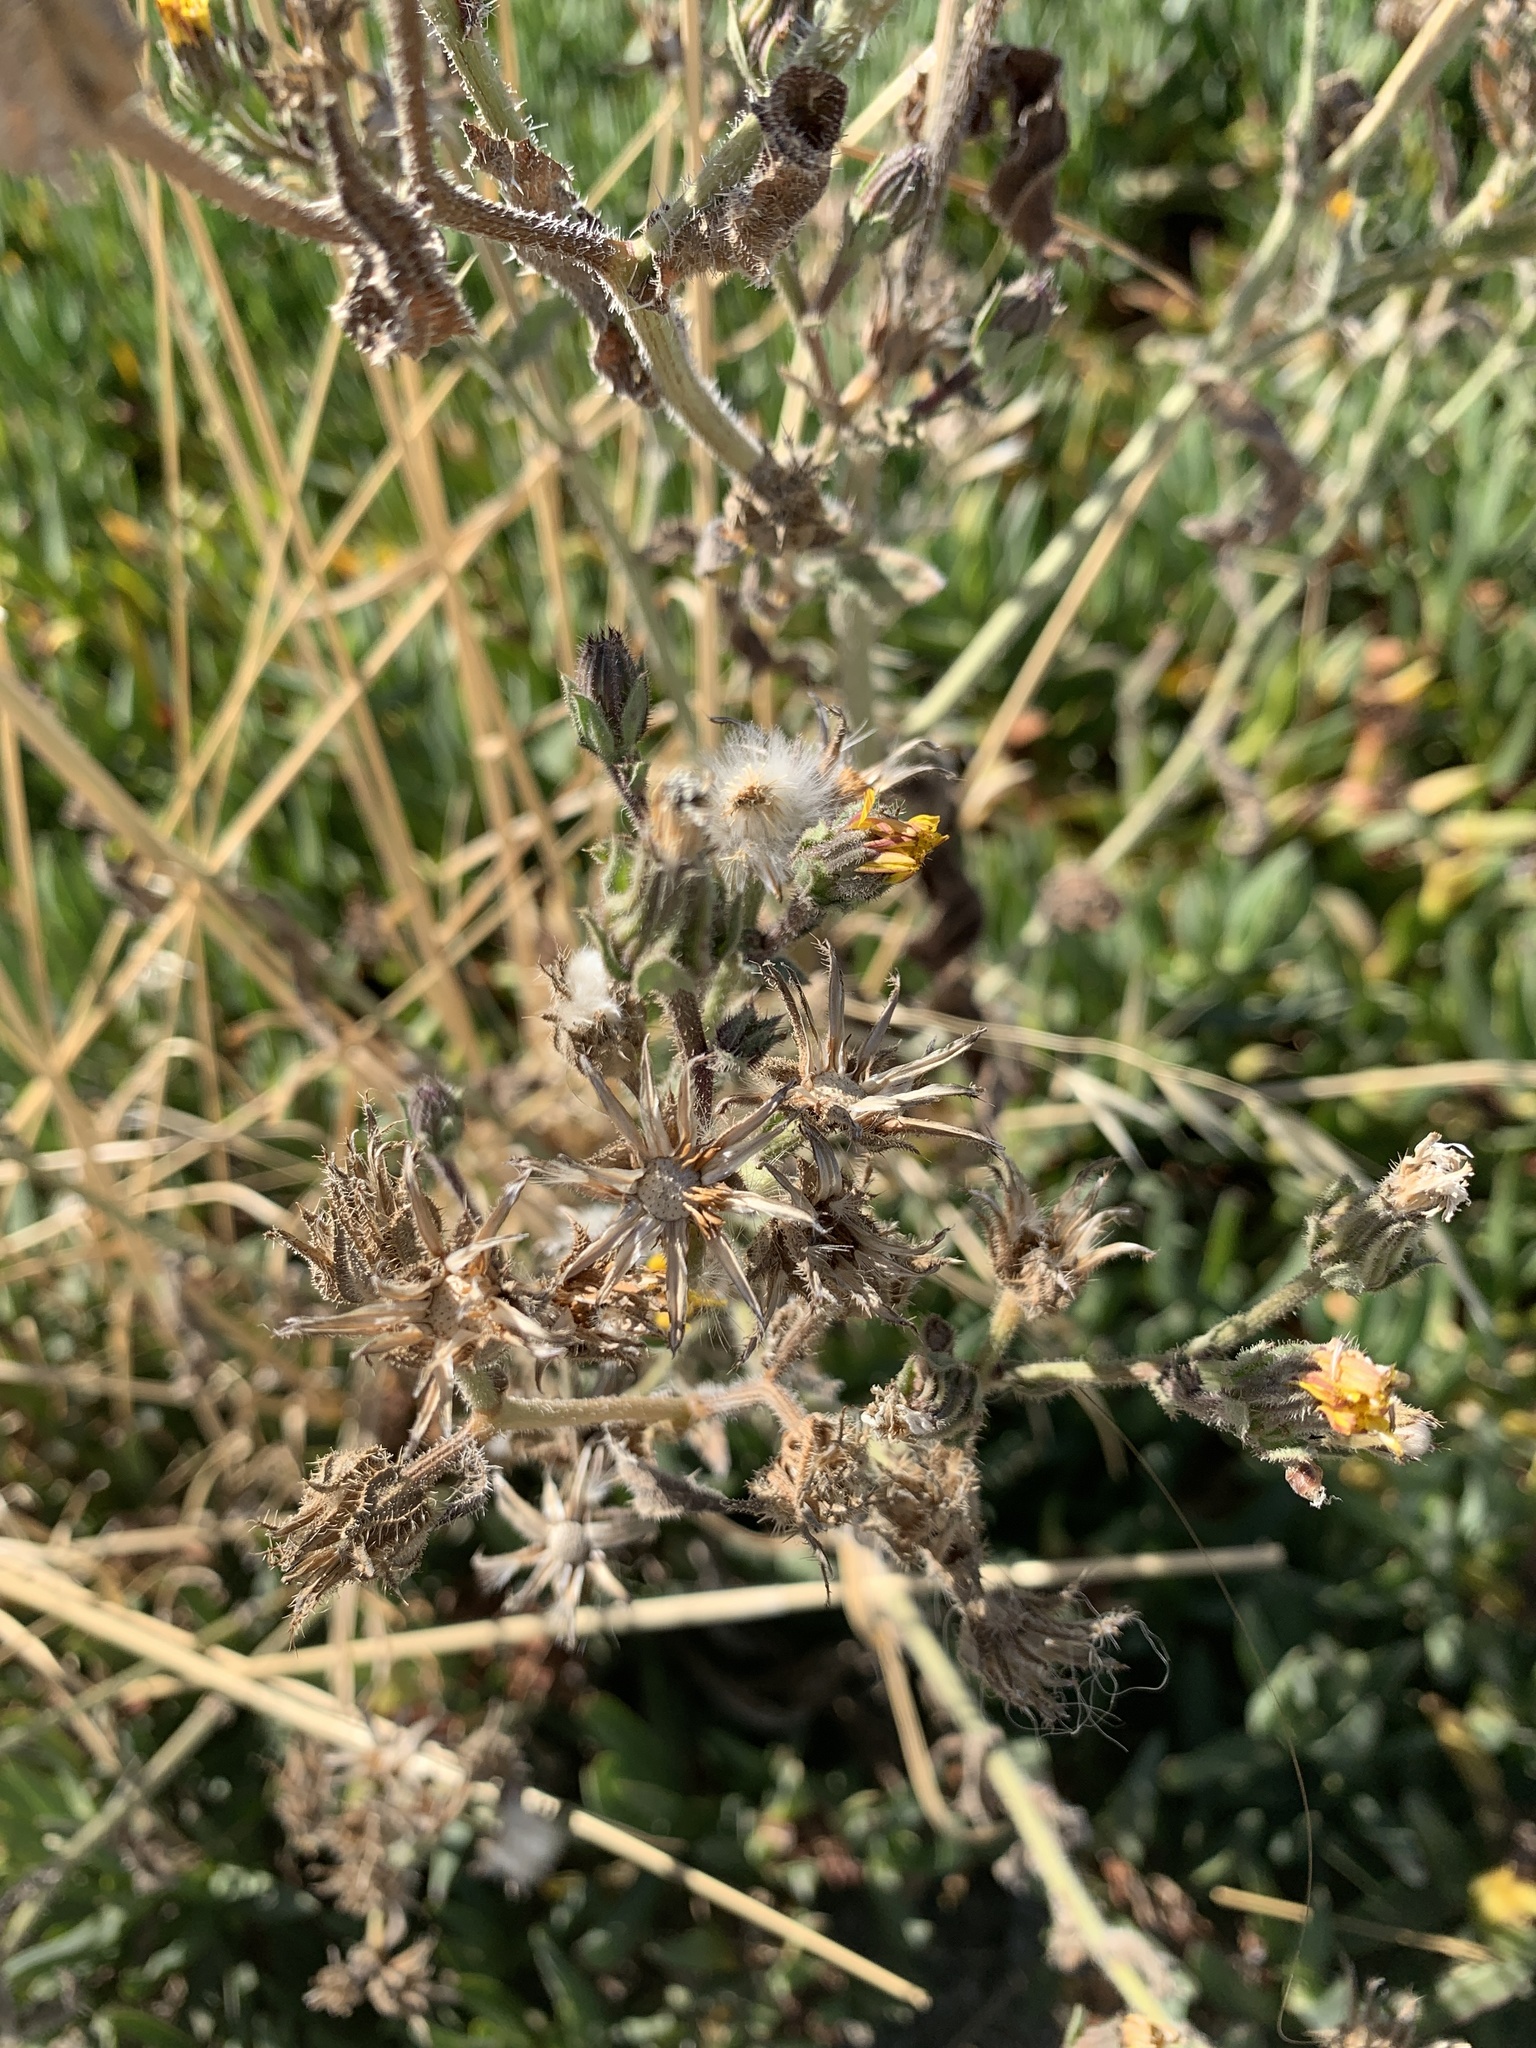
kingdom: Plantae
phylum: Tracheophyta
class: Magnoliopsida
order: Asterales
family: Asteraceae
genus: Helminthotheca
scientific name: Helminthotheca echioides
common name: Ox-tongue
